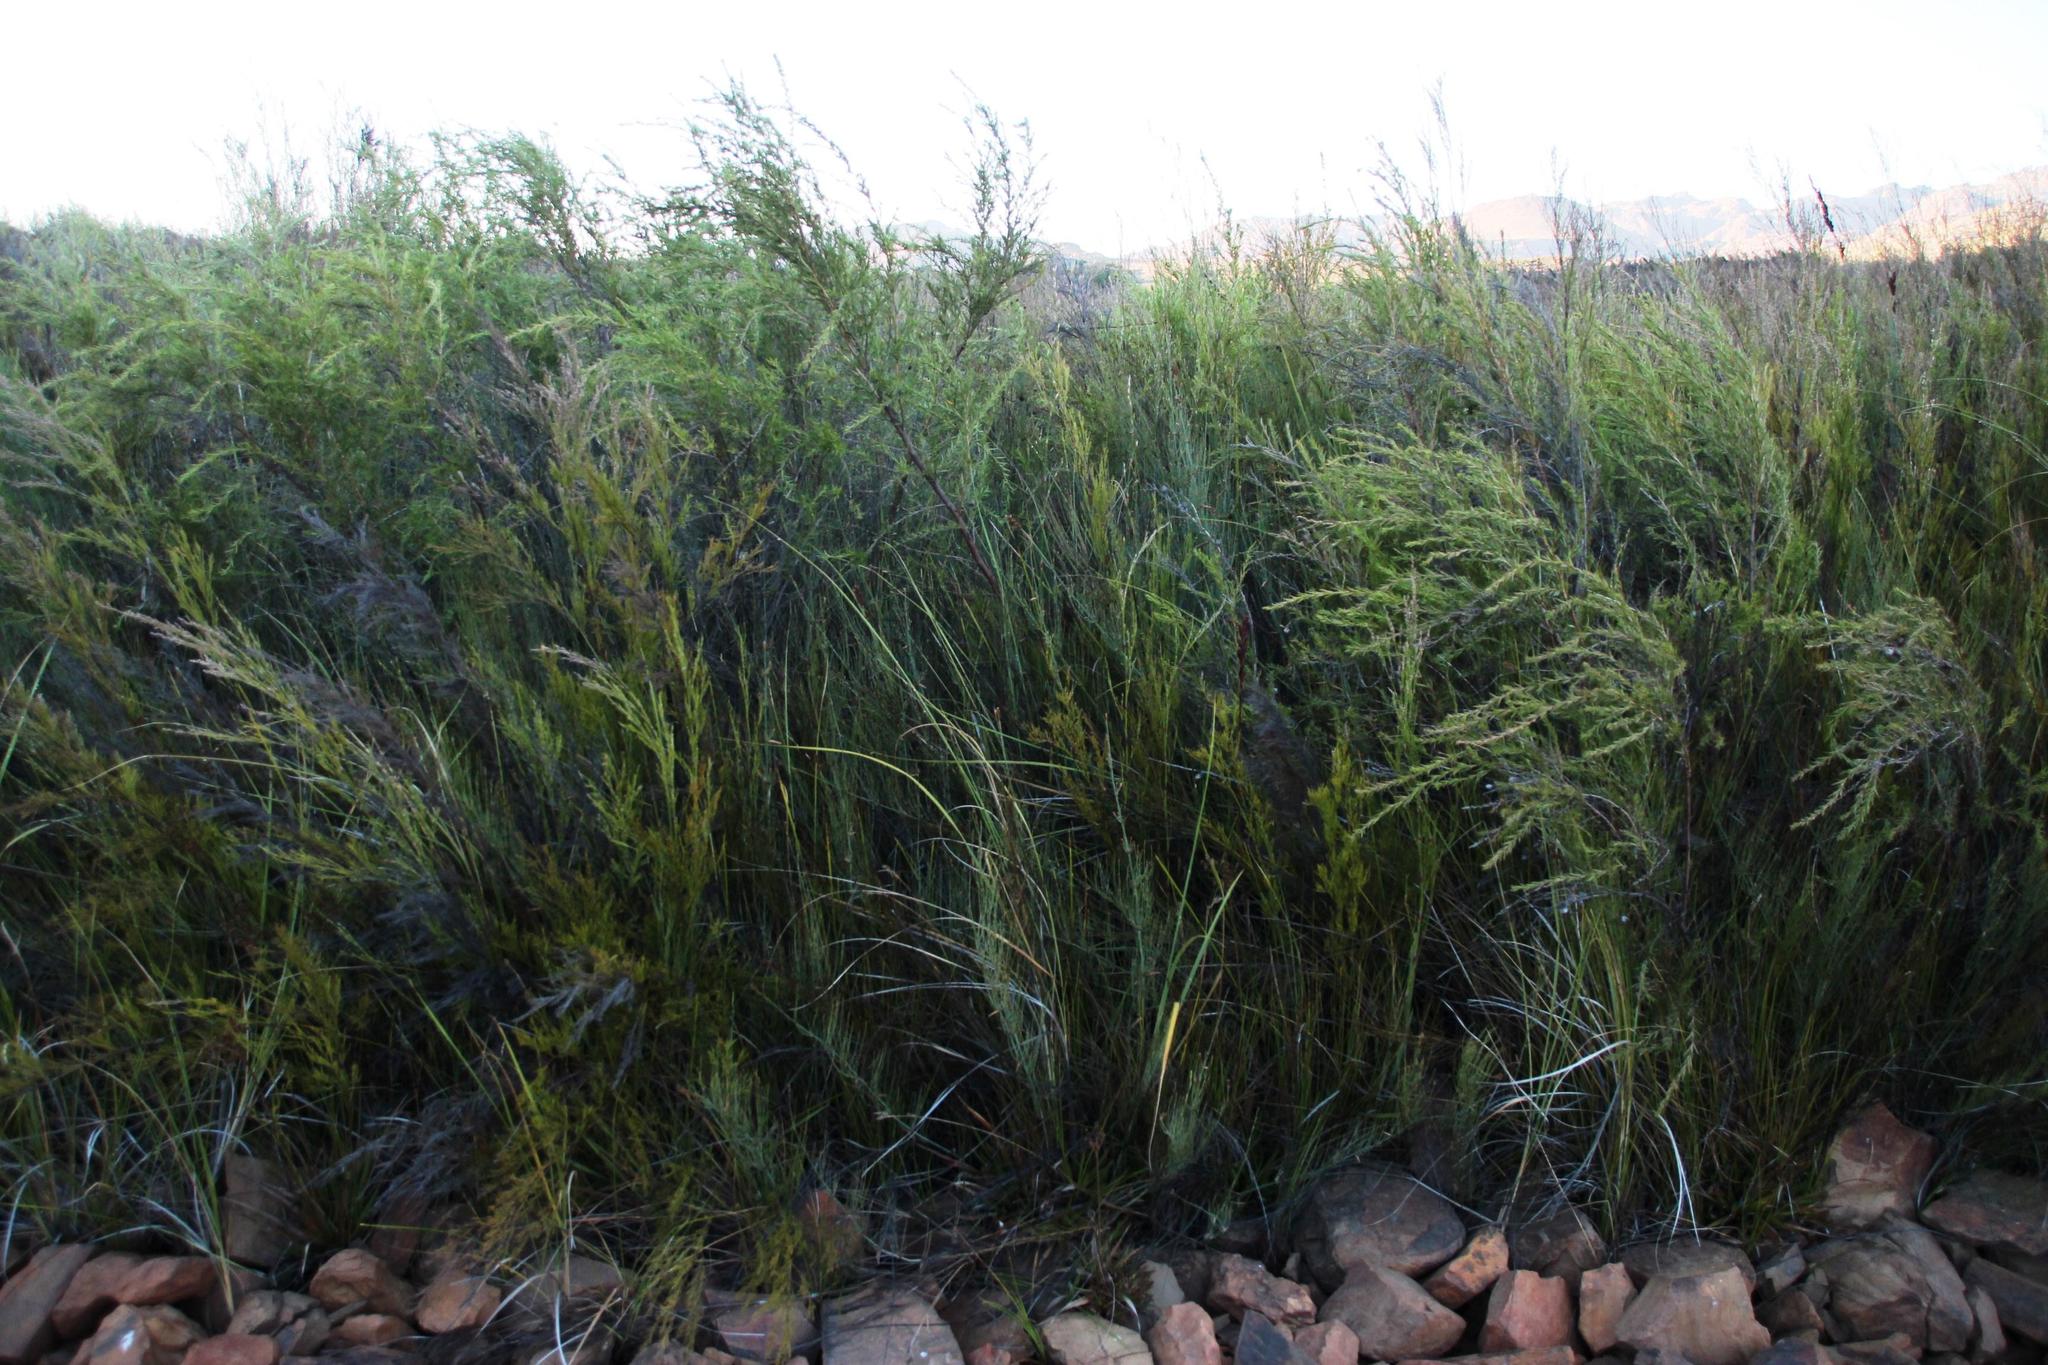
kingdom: Plantae
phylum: Tracheophyta
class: Magnoliopsida
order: Rosales
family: Rosaceae
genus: Cliffortia
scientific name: Cliffortia strobilifera
